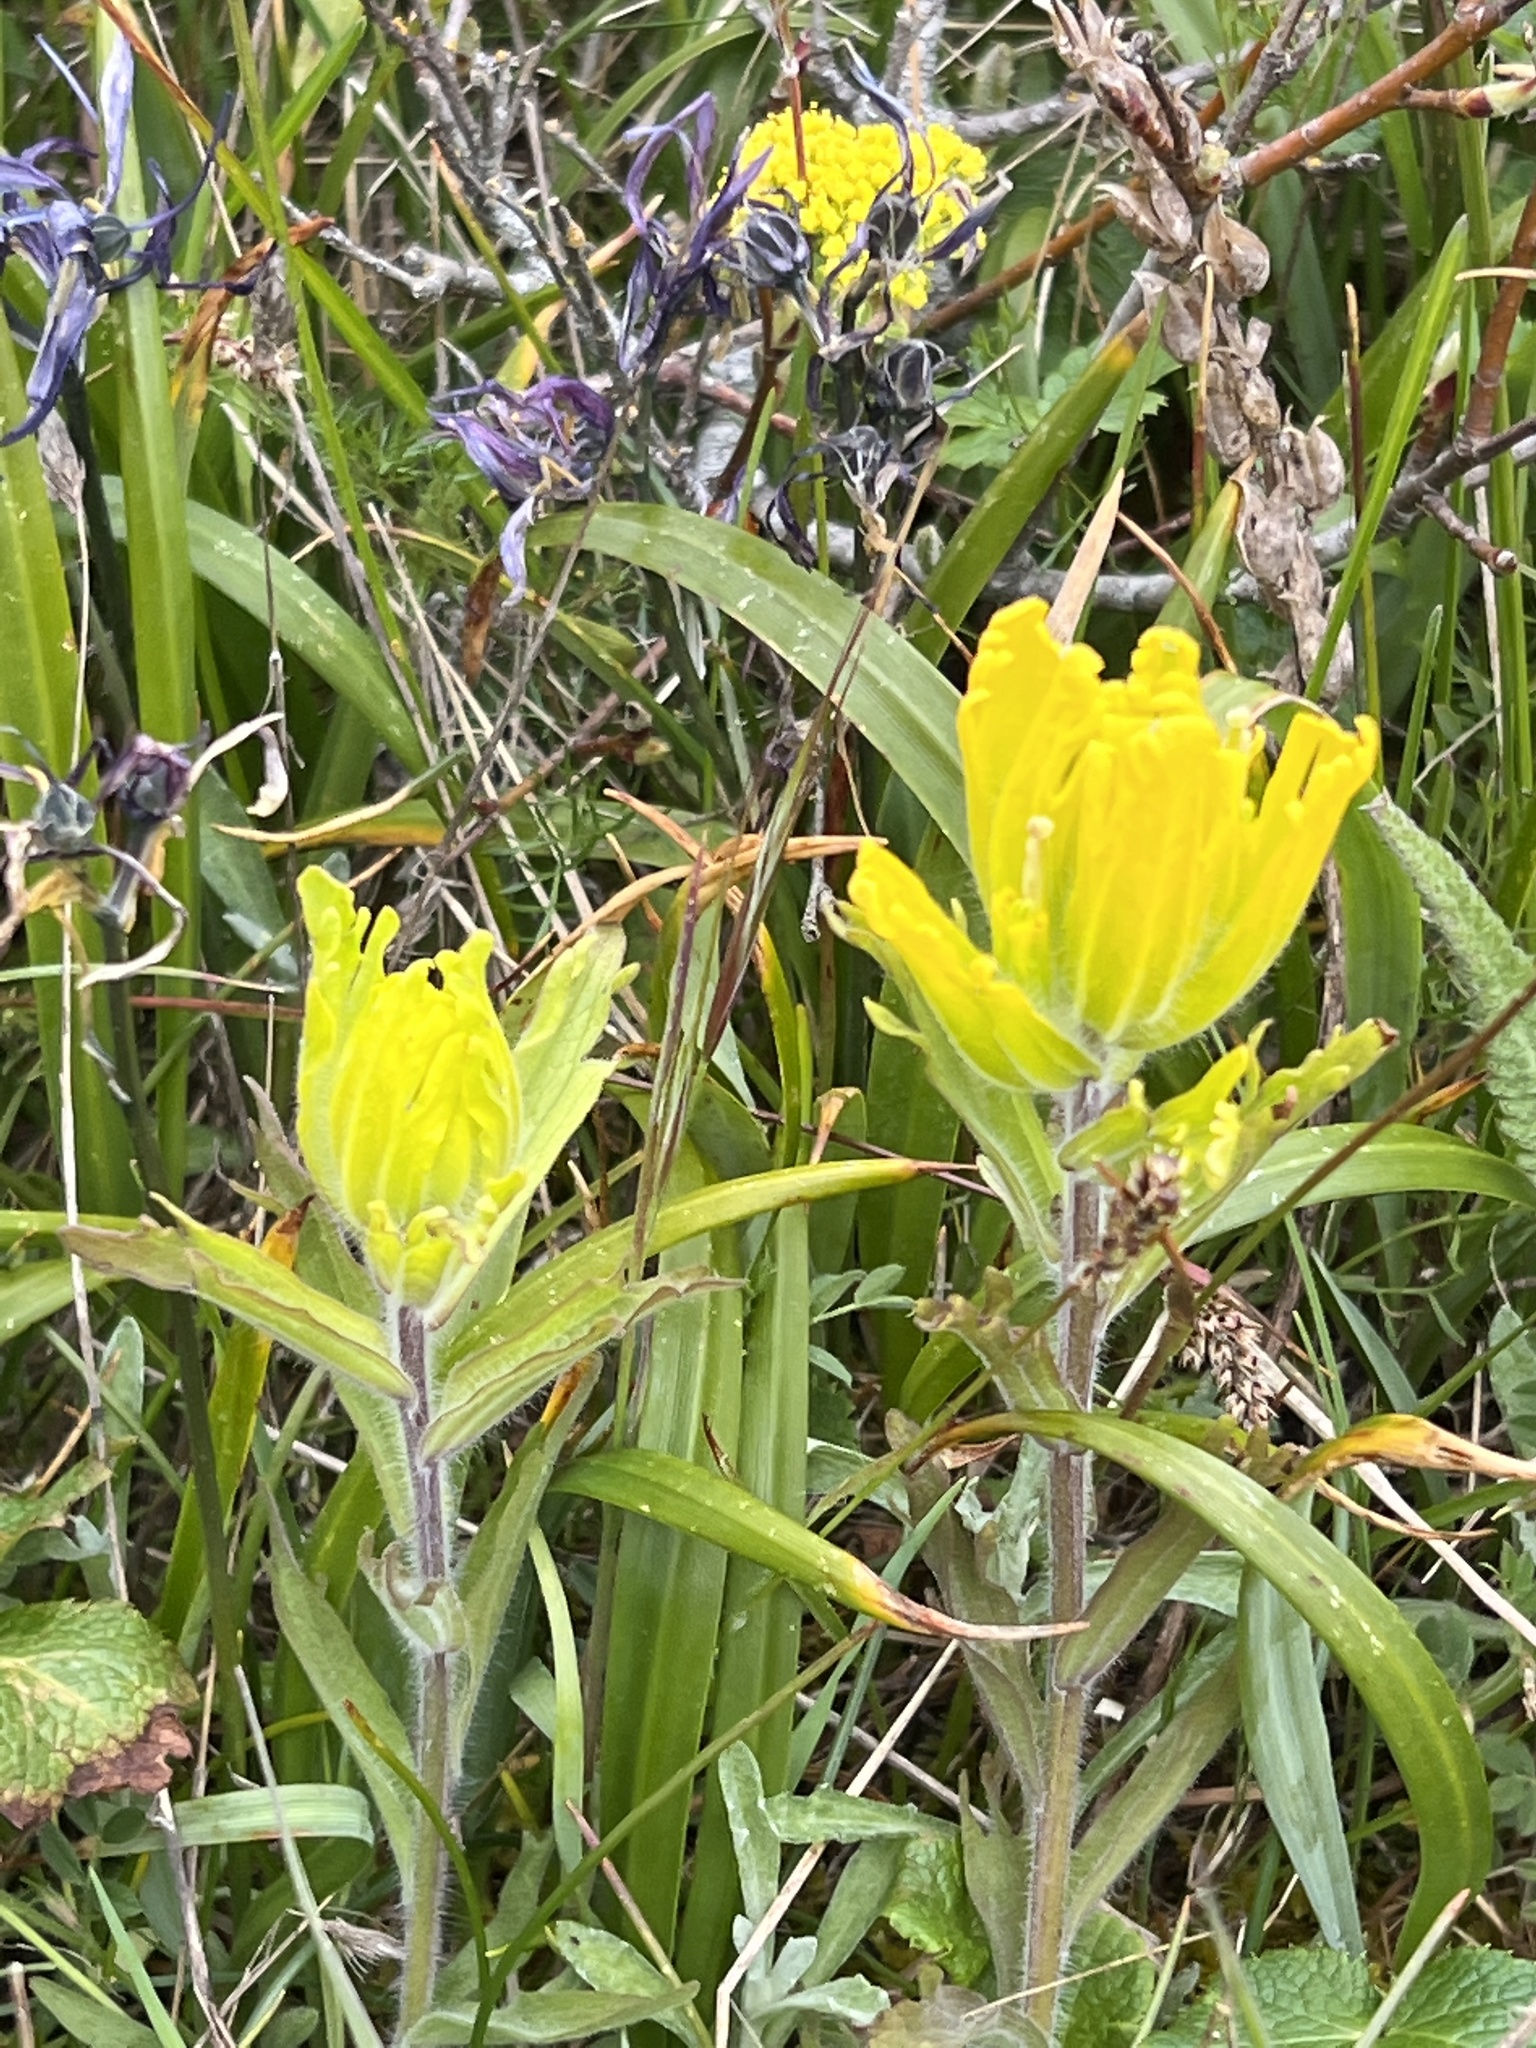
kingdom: Plantae
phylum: Tracheophyta
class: Magnoliopsida
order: Lamiales
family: Orobanchaceae
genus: Castilleja
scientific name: Castilleja levisecta
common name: Golden paintbrush
